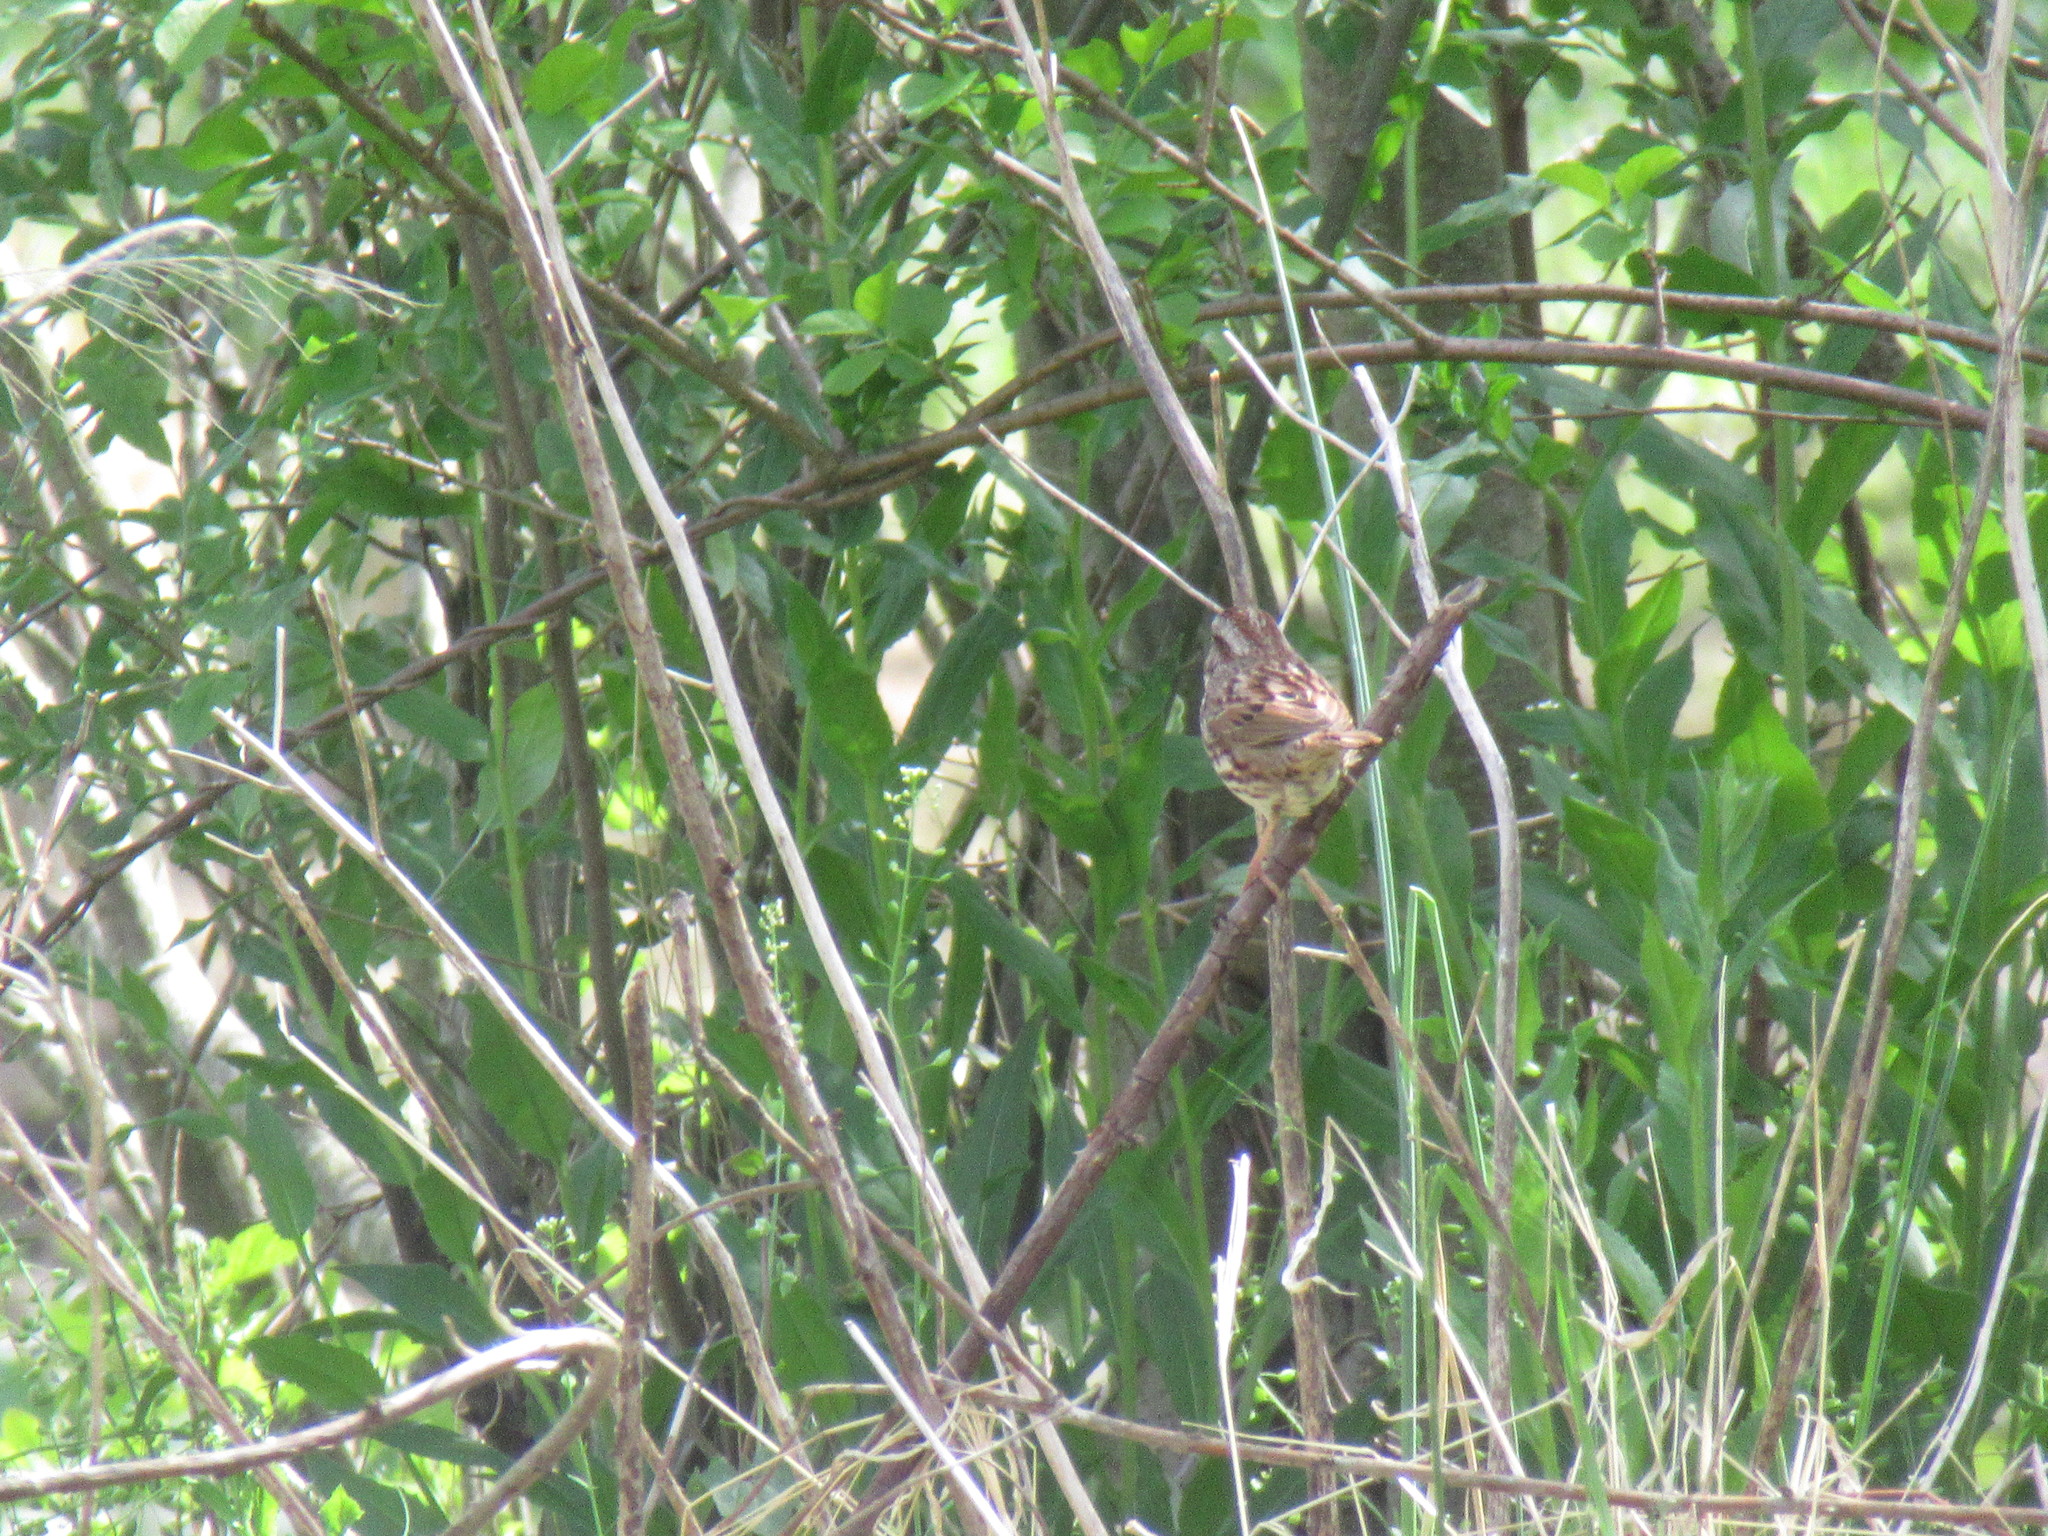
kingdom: Animalia
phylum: Chordata
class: Aves
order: Passeriformes
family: Passerellidae
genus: Melospiza
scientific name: Melospiza melodia
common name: Song sparrow
